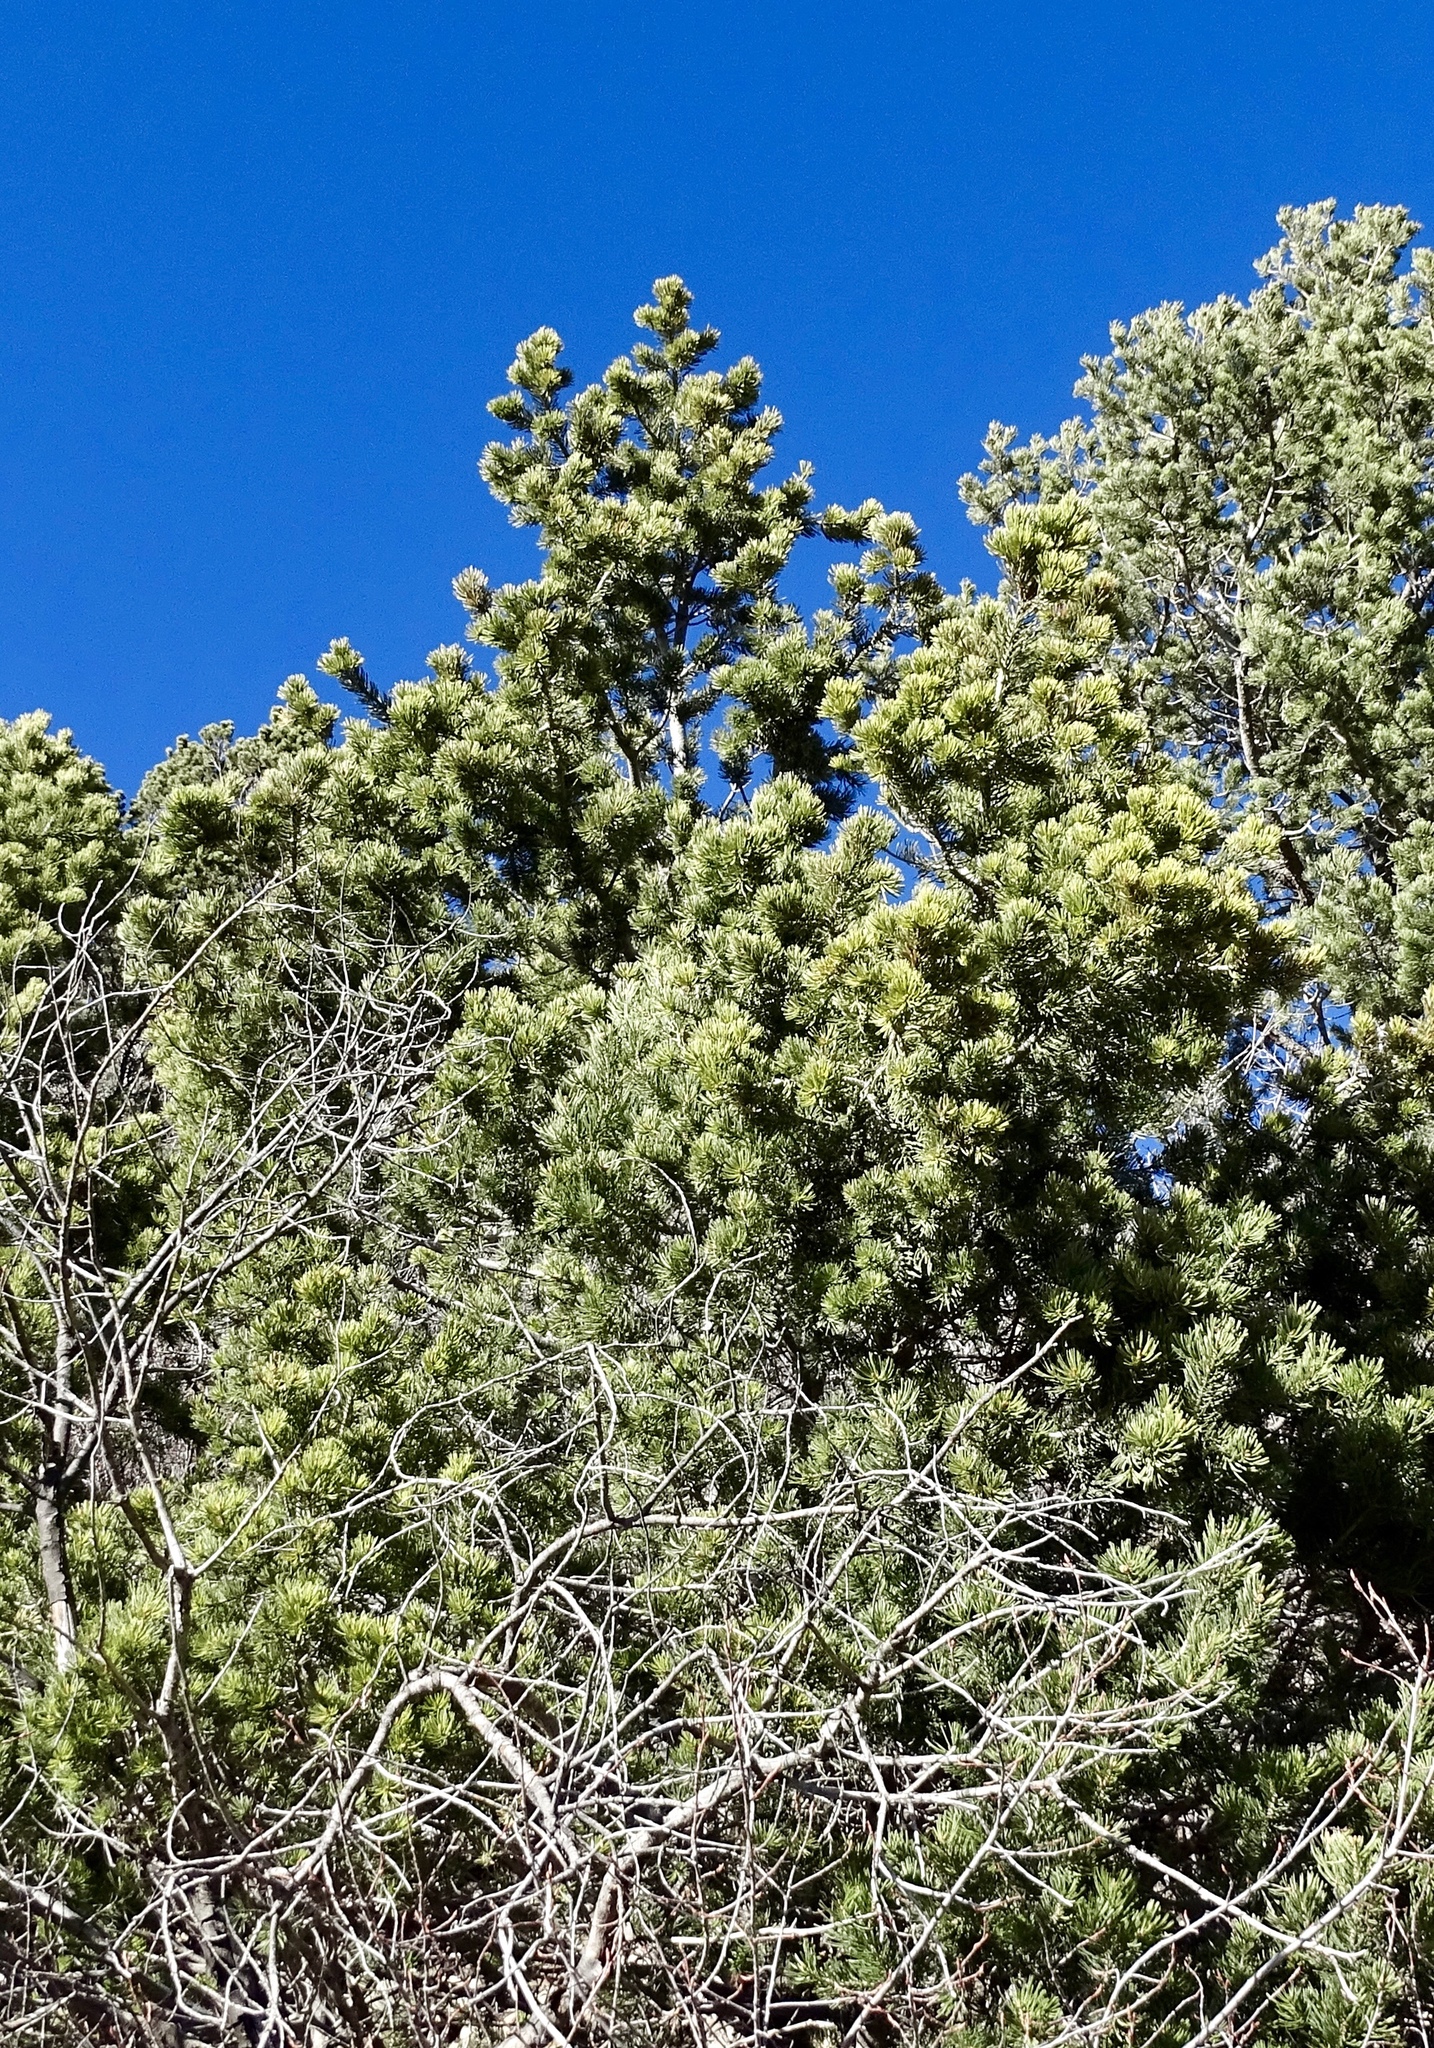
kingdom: Plantae
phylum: Tracheophyta
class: Pinopsida
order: Pinales
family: Pinaceae
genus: Pinus
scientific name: Pinus edulis
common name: Colorado pinyon
